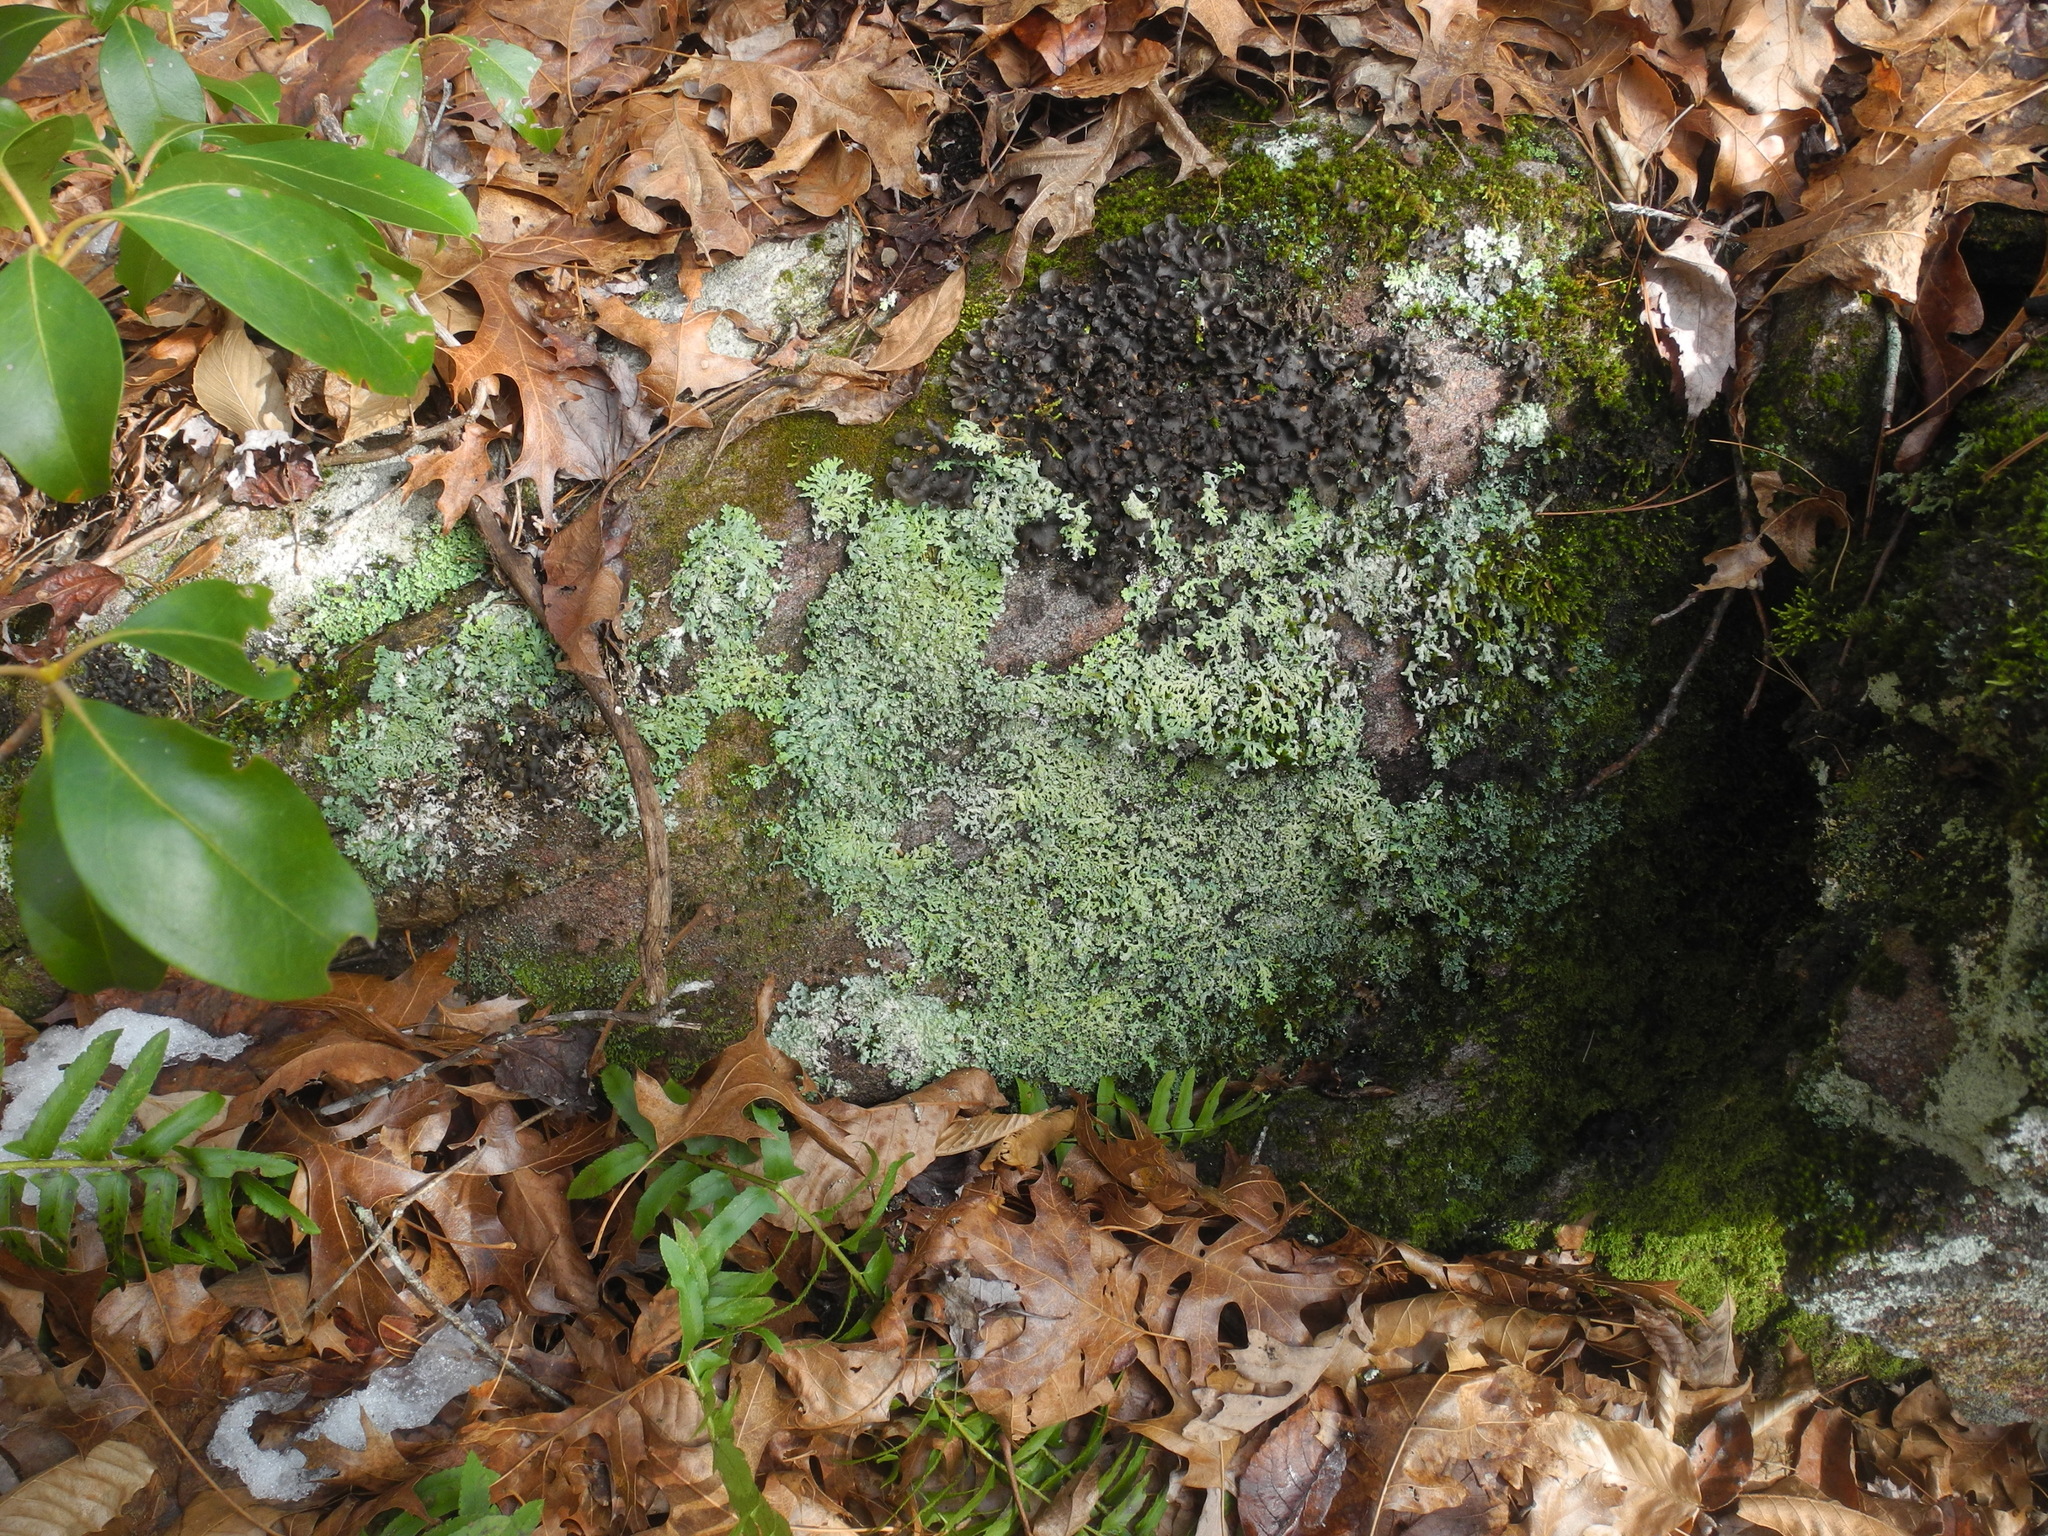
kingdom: Fungi
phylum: Ascomycota
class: Lecanoromycetes
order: Caliciales
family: Physciaceae
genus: Polyblastidium
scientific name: Polyblastidium japonicum
